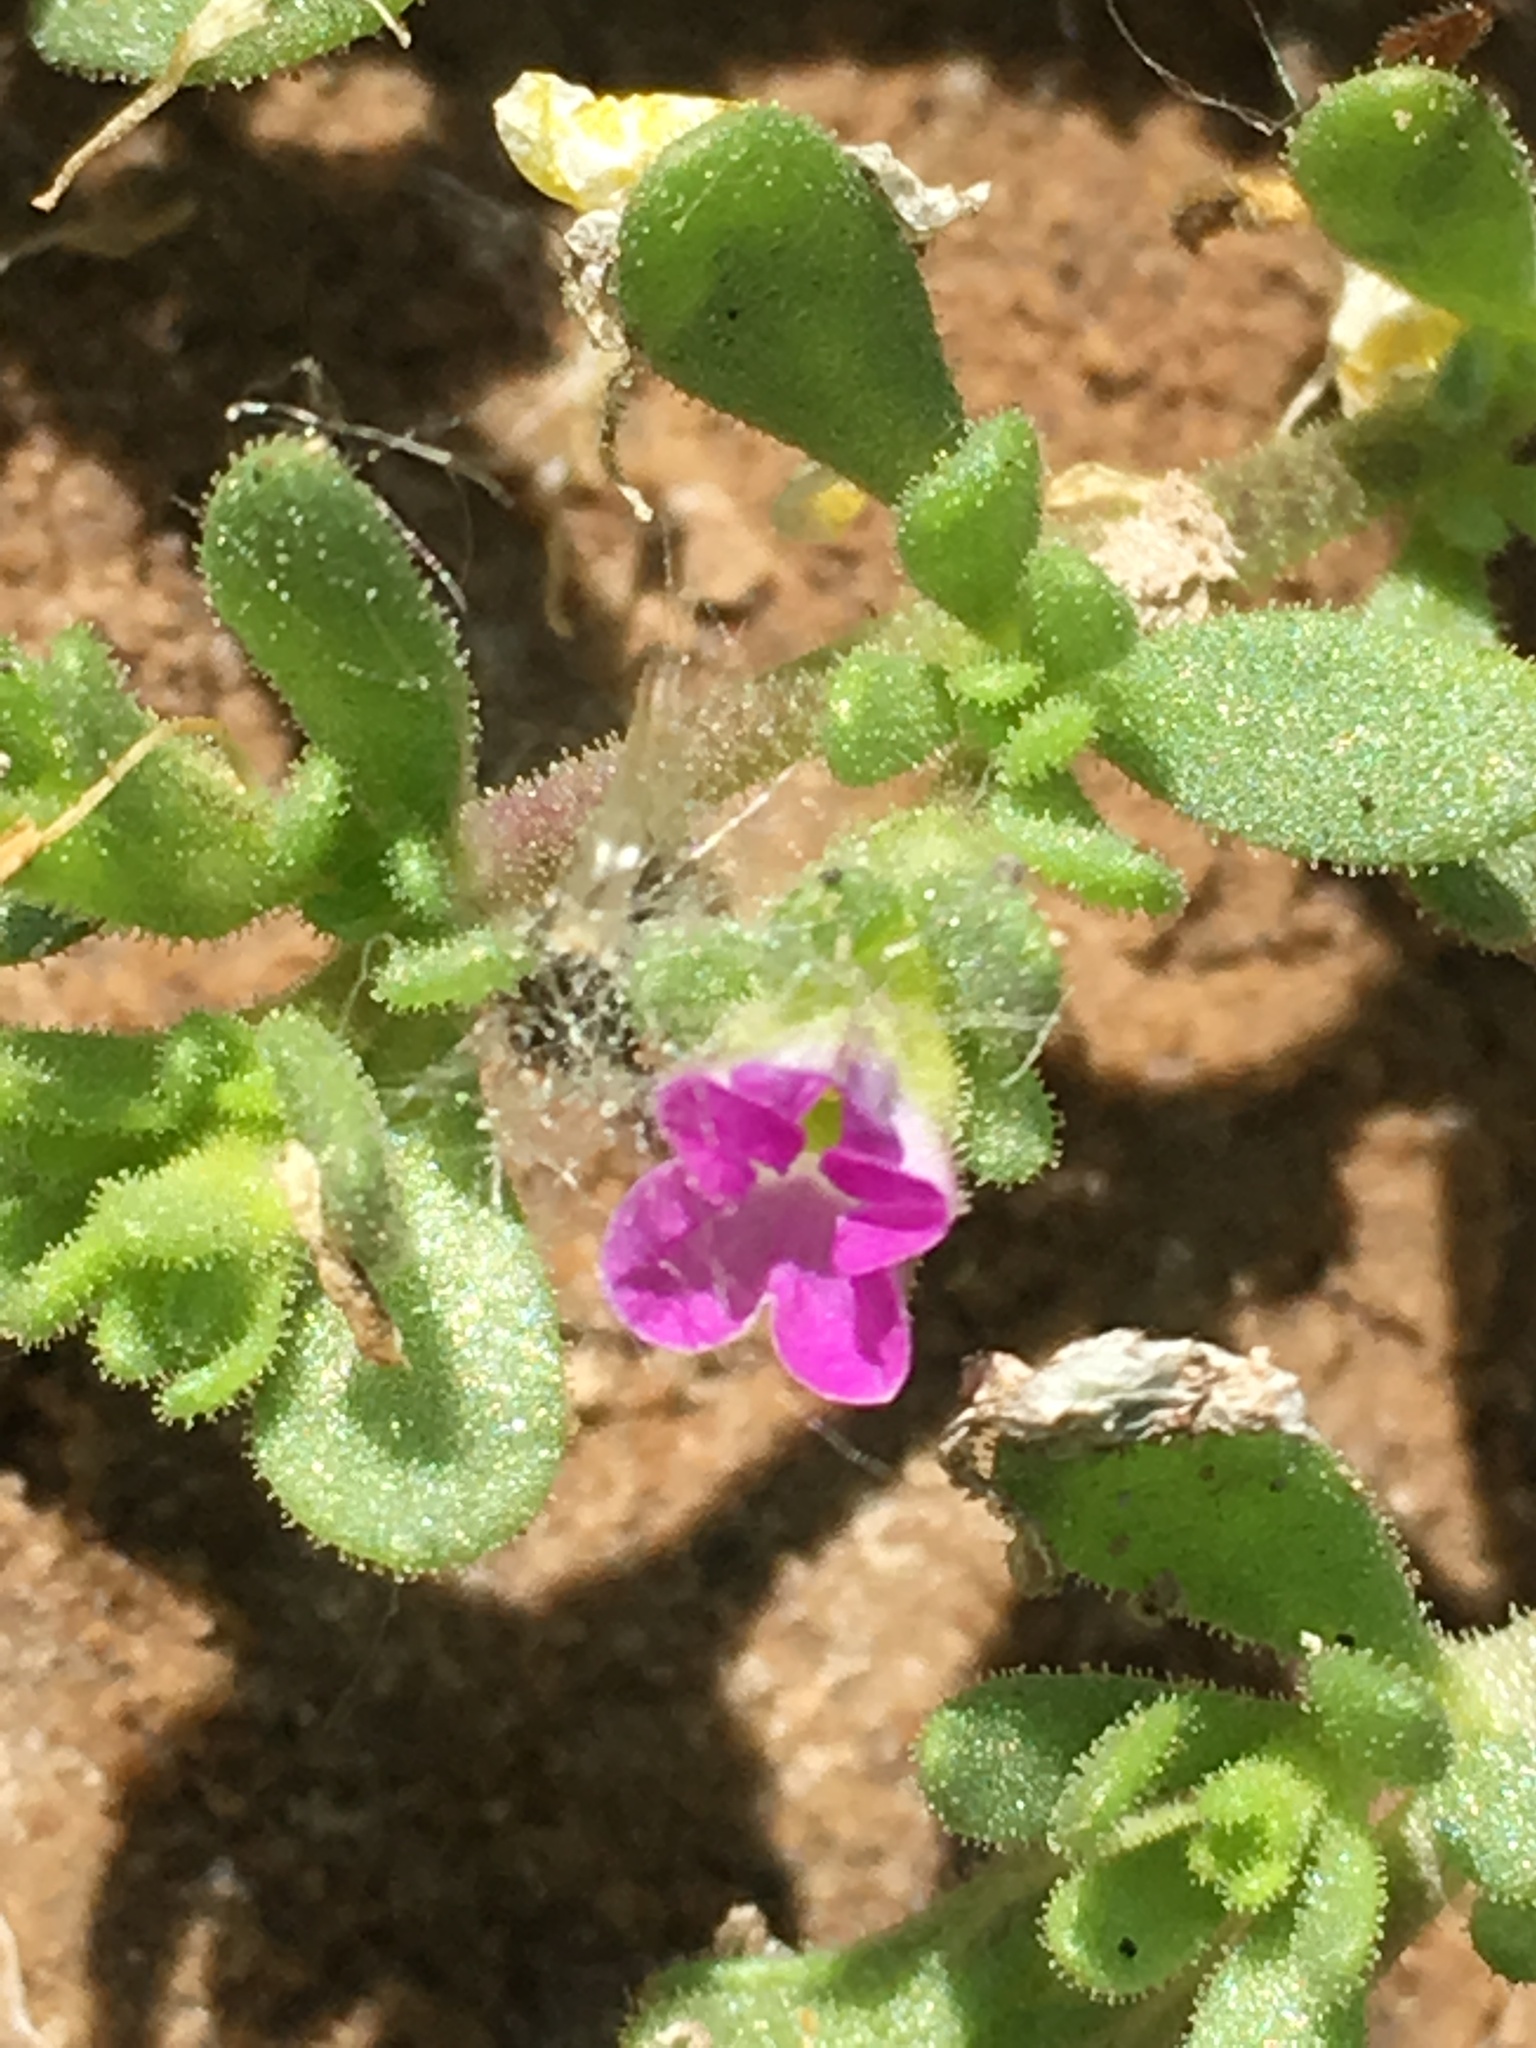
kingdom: Plantae
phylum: Tracheophyta
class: Magnoliopsida
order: Solanales
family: Solanaceae
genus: Calibrachoa
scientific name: Calibrachoa parviflora
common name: Seaside petunia
